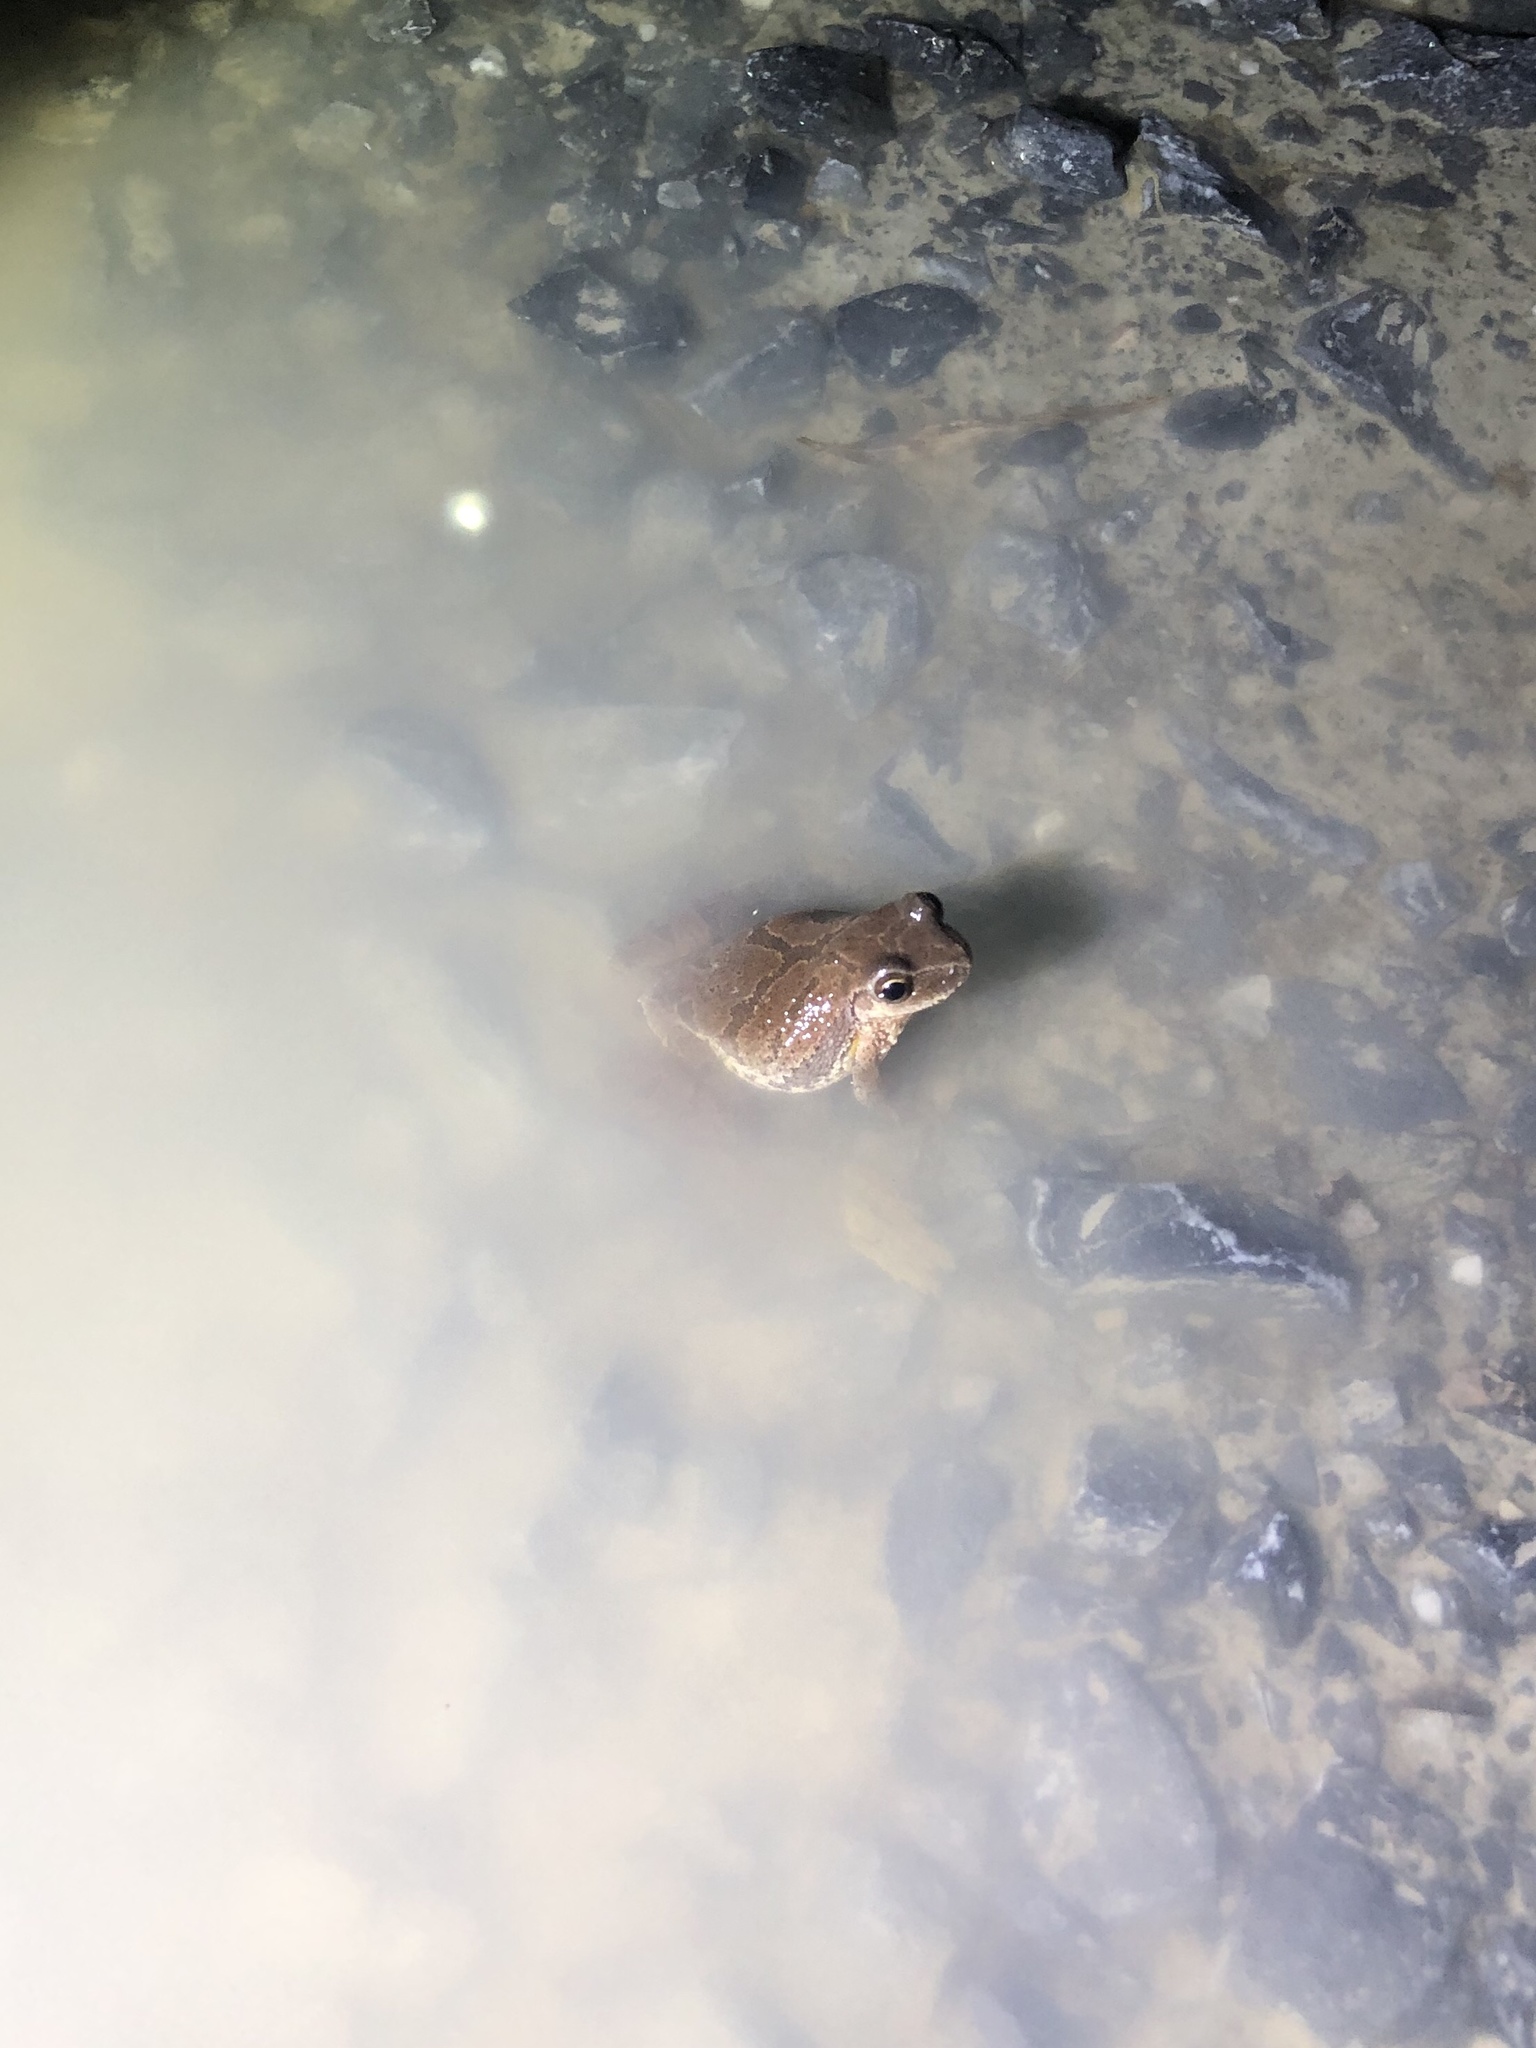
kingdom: Animalia
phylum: Chordata
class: Amphibia
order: Anura
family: Hylidae
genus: Pseudacris
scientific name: Pseudacris crucifer
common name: Spring peeper
